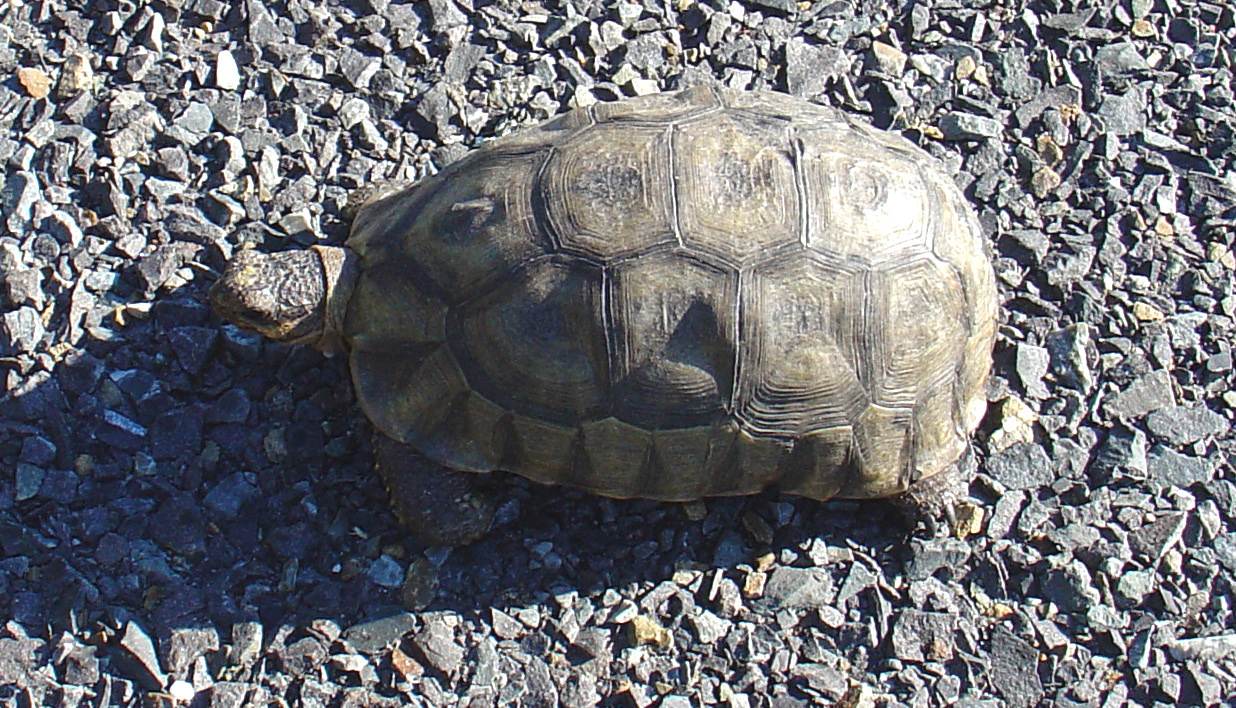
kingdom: Animalia
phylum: Chordata
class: Testudines
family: Testudinidae
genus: Chersina
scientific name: Chersina angulata
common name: South african bowsprit tortoise
